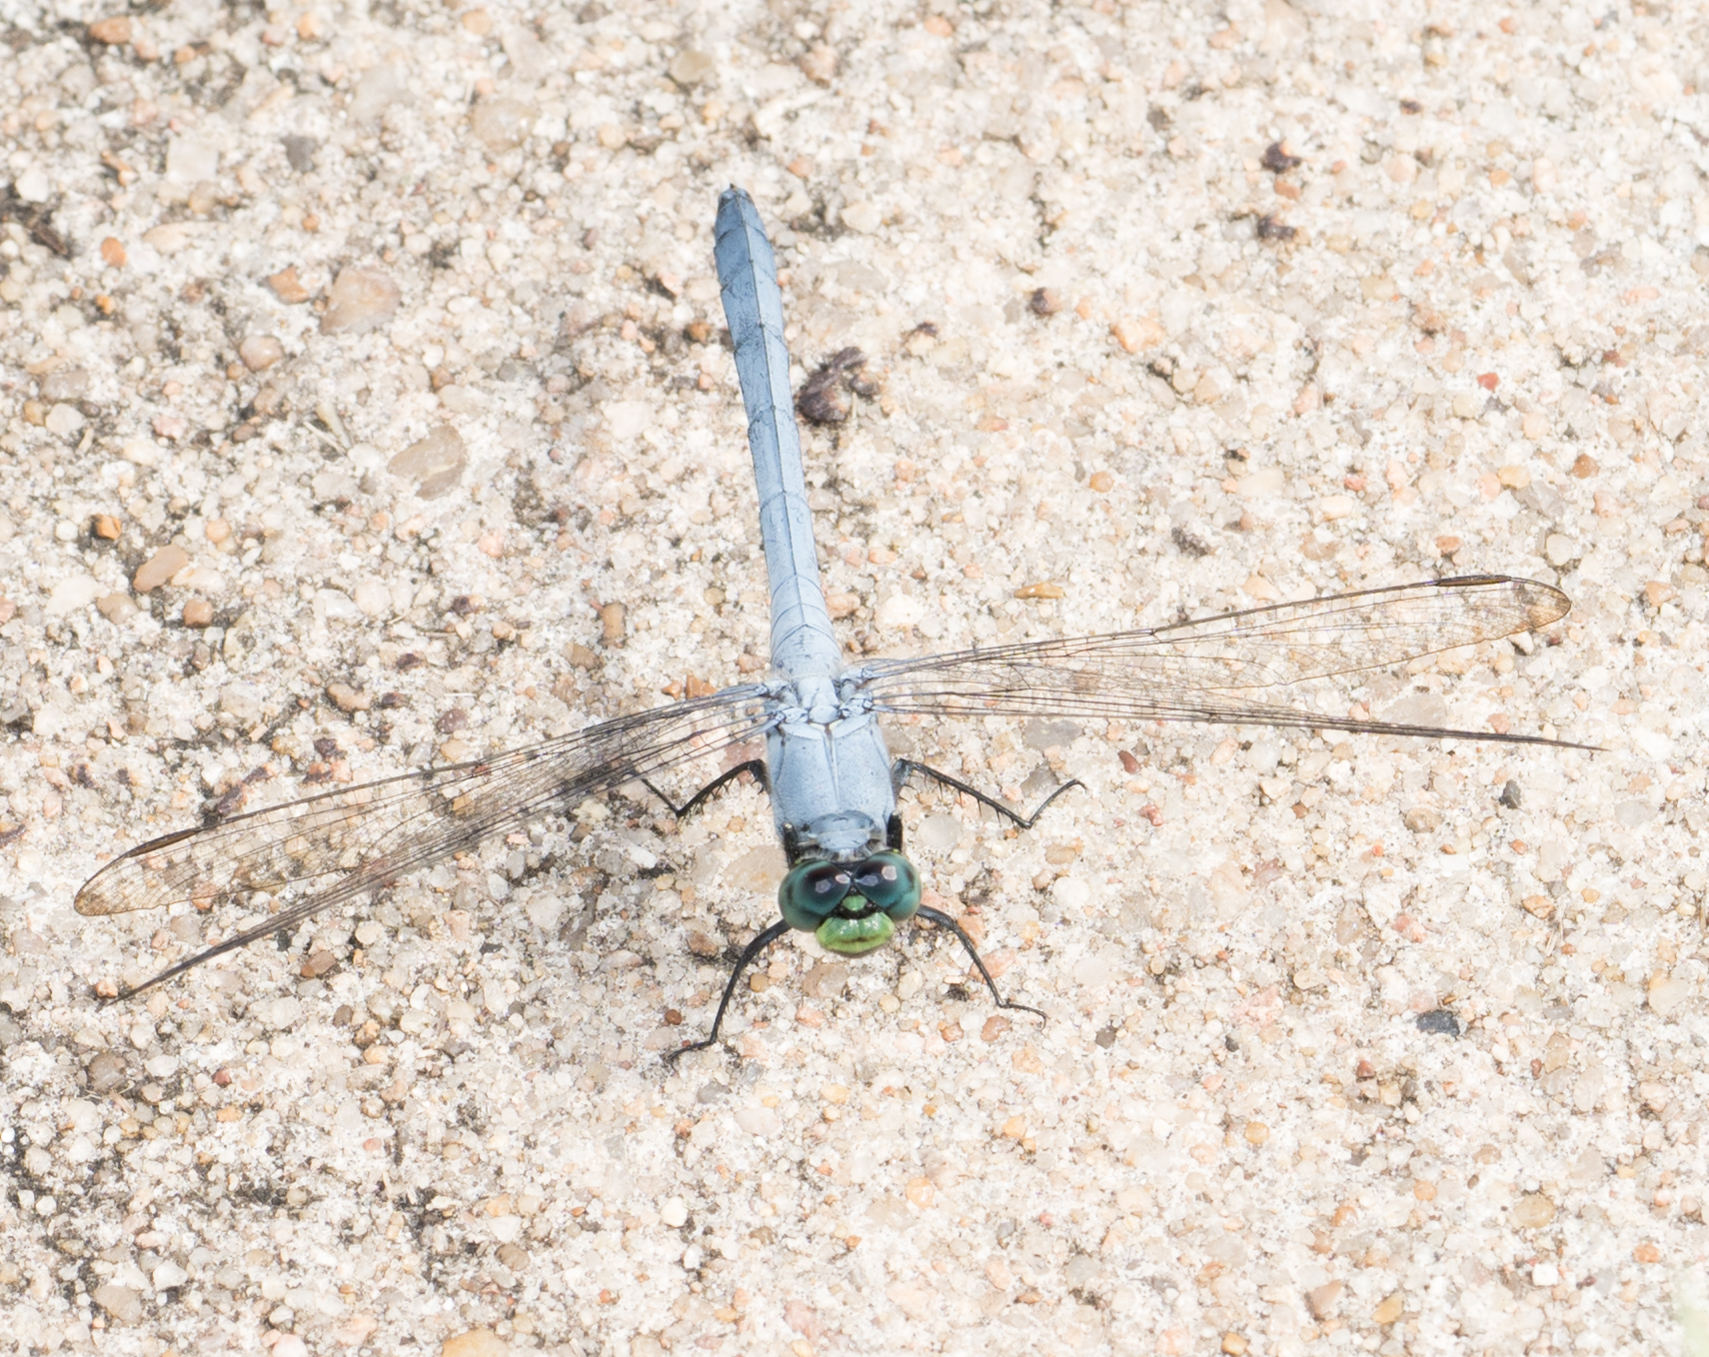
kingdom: Animalia
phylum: Arthropoda
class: Insecta
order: Odonata
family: Libellulidae
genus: Erythemis
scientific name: Erythemis simplicicollis
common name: Eastern pondhawk
